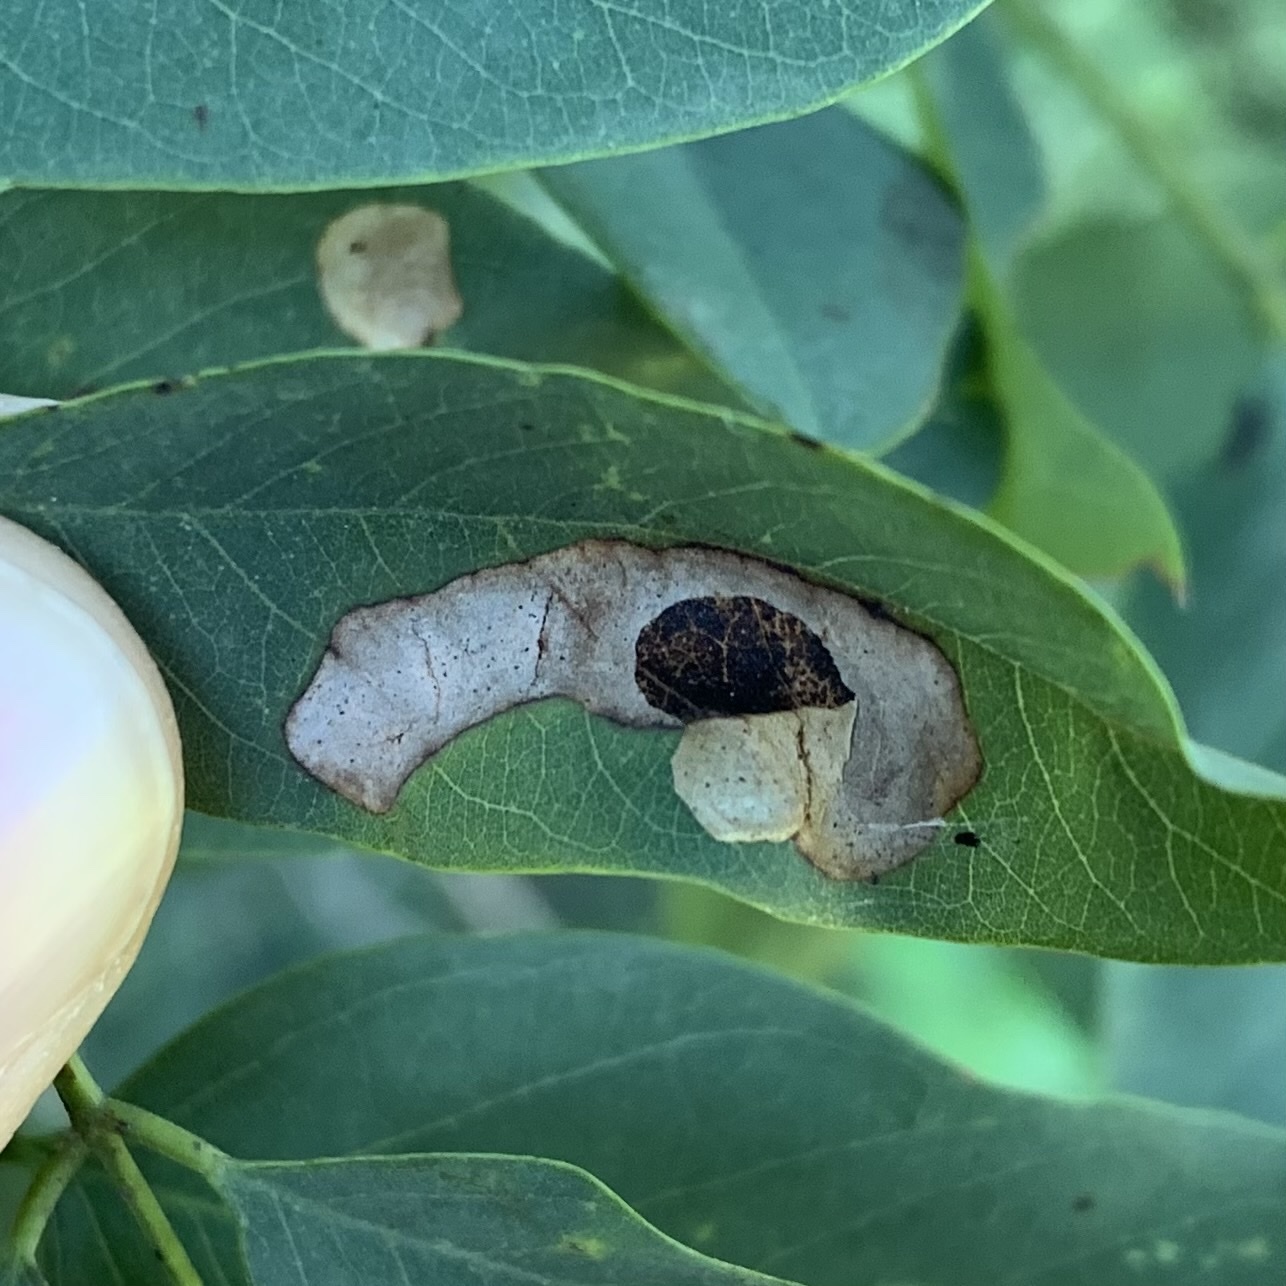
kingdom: Animalia
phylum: Arthropoda
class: Insecta
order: Lepidoptera
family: Gracillariidae
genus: Chrysaster
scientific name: Chrysaster ostensackenella
